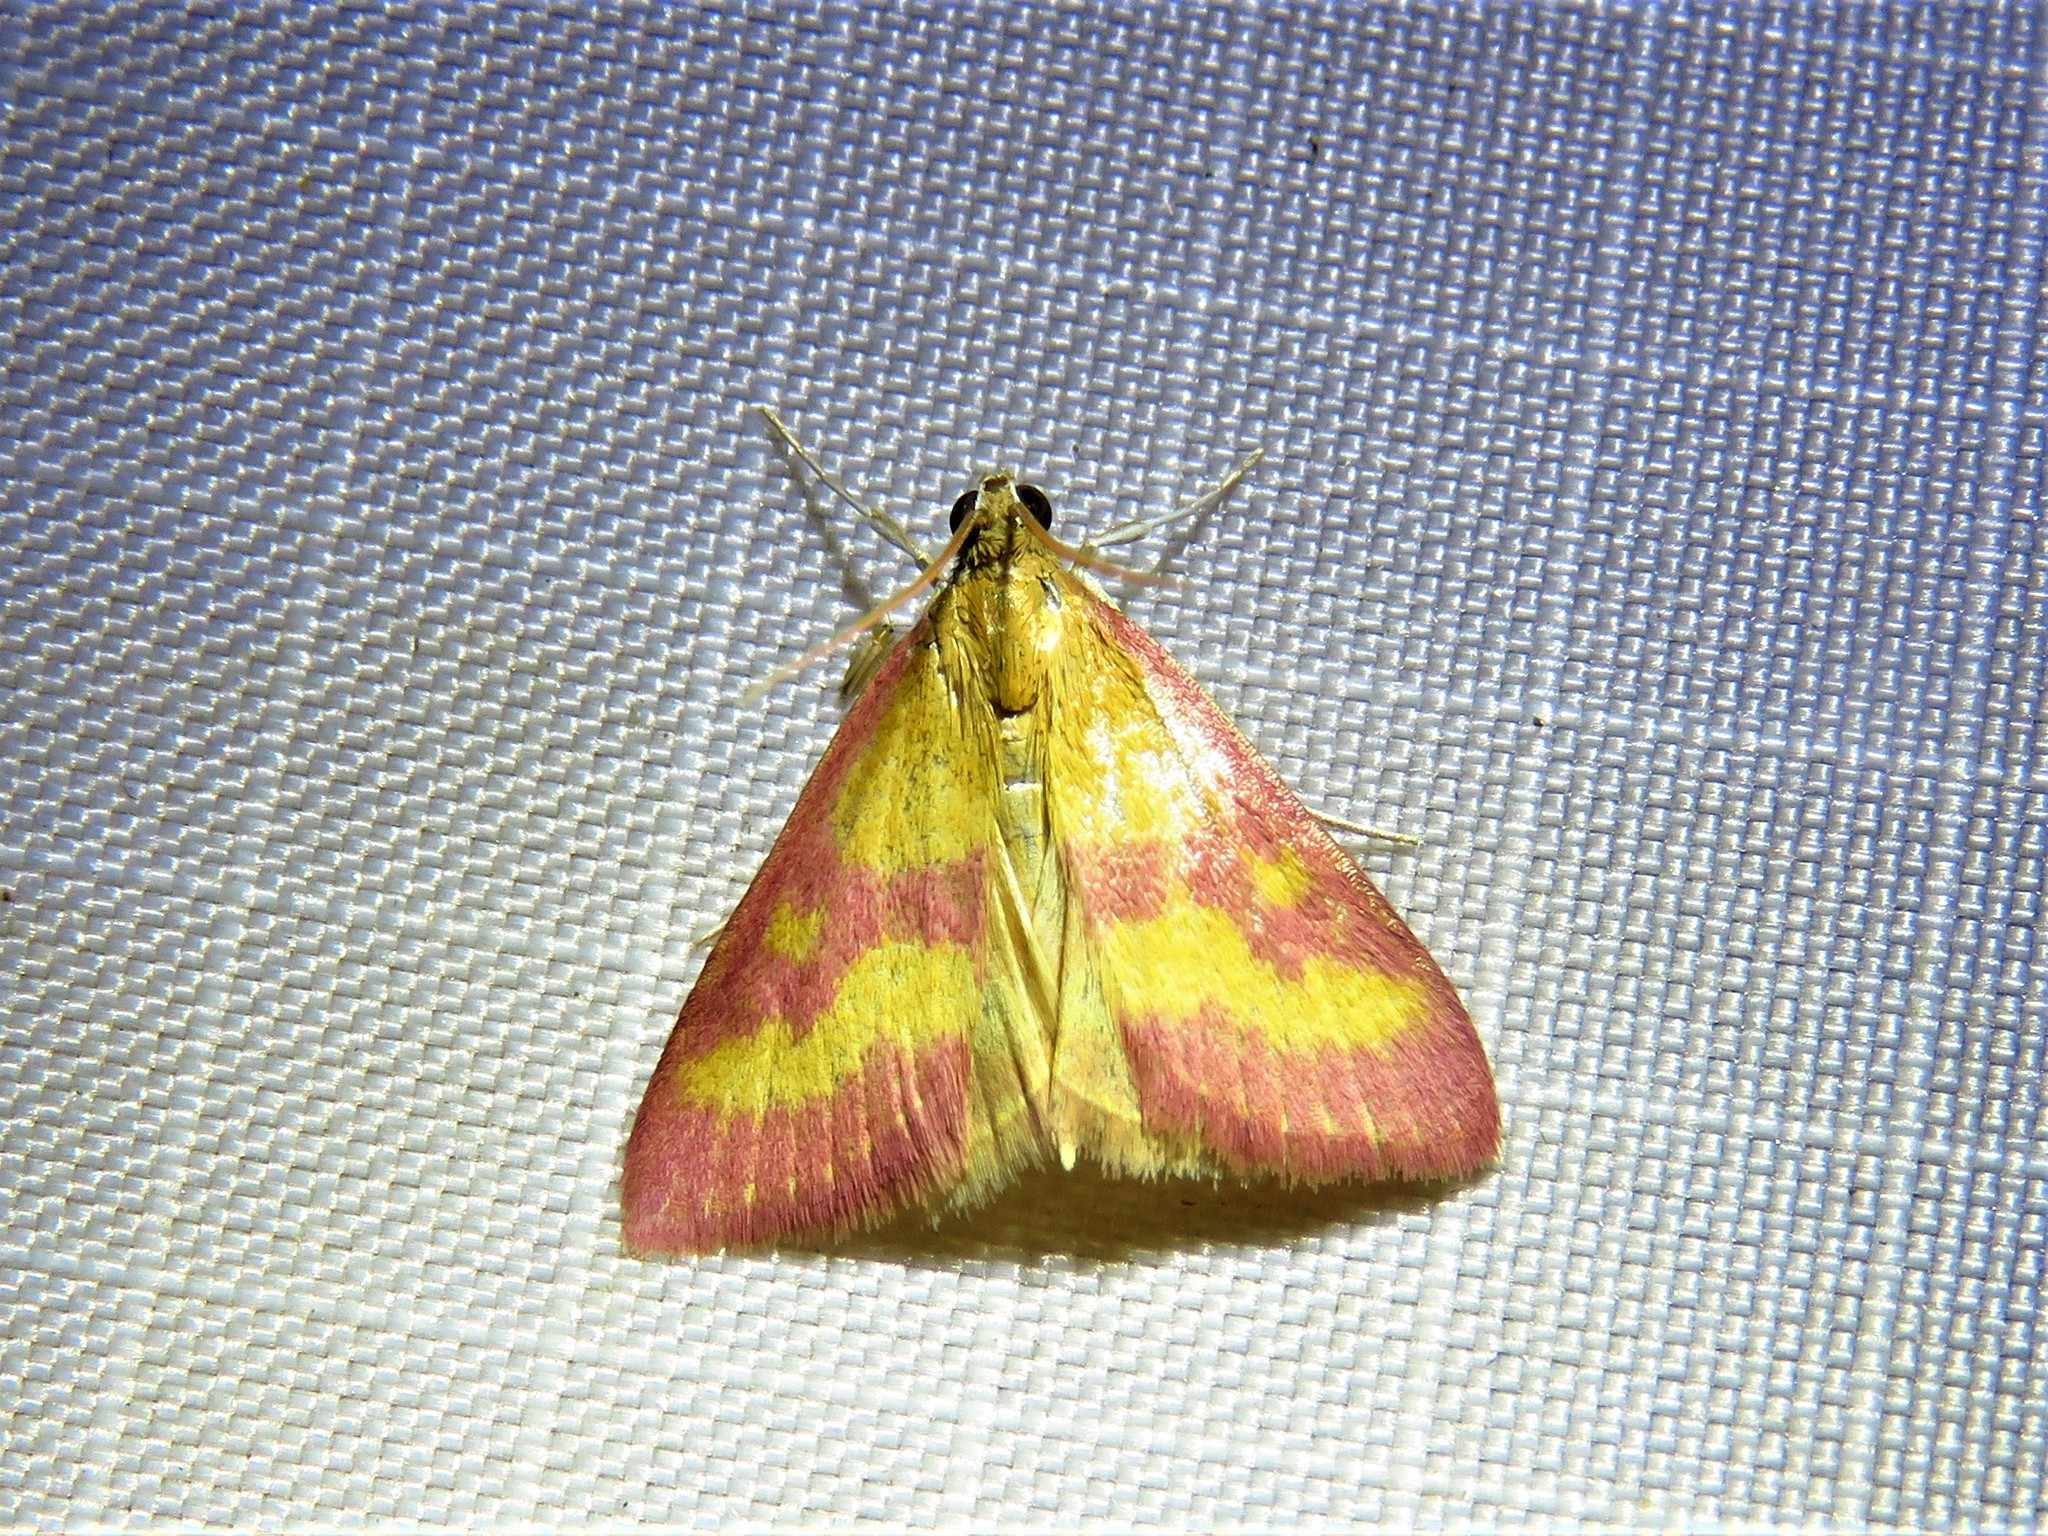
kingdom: Animalia
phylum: Arthropoda
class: Insecta
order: Lepidoptera
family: Crambidae
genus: Pyrausta
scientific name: Pyrausta laticlavia
